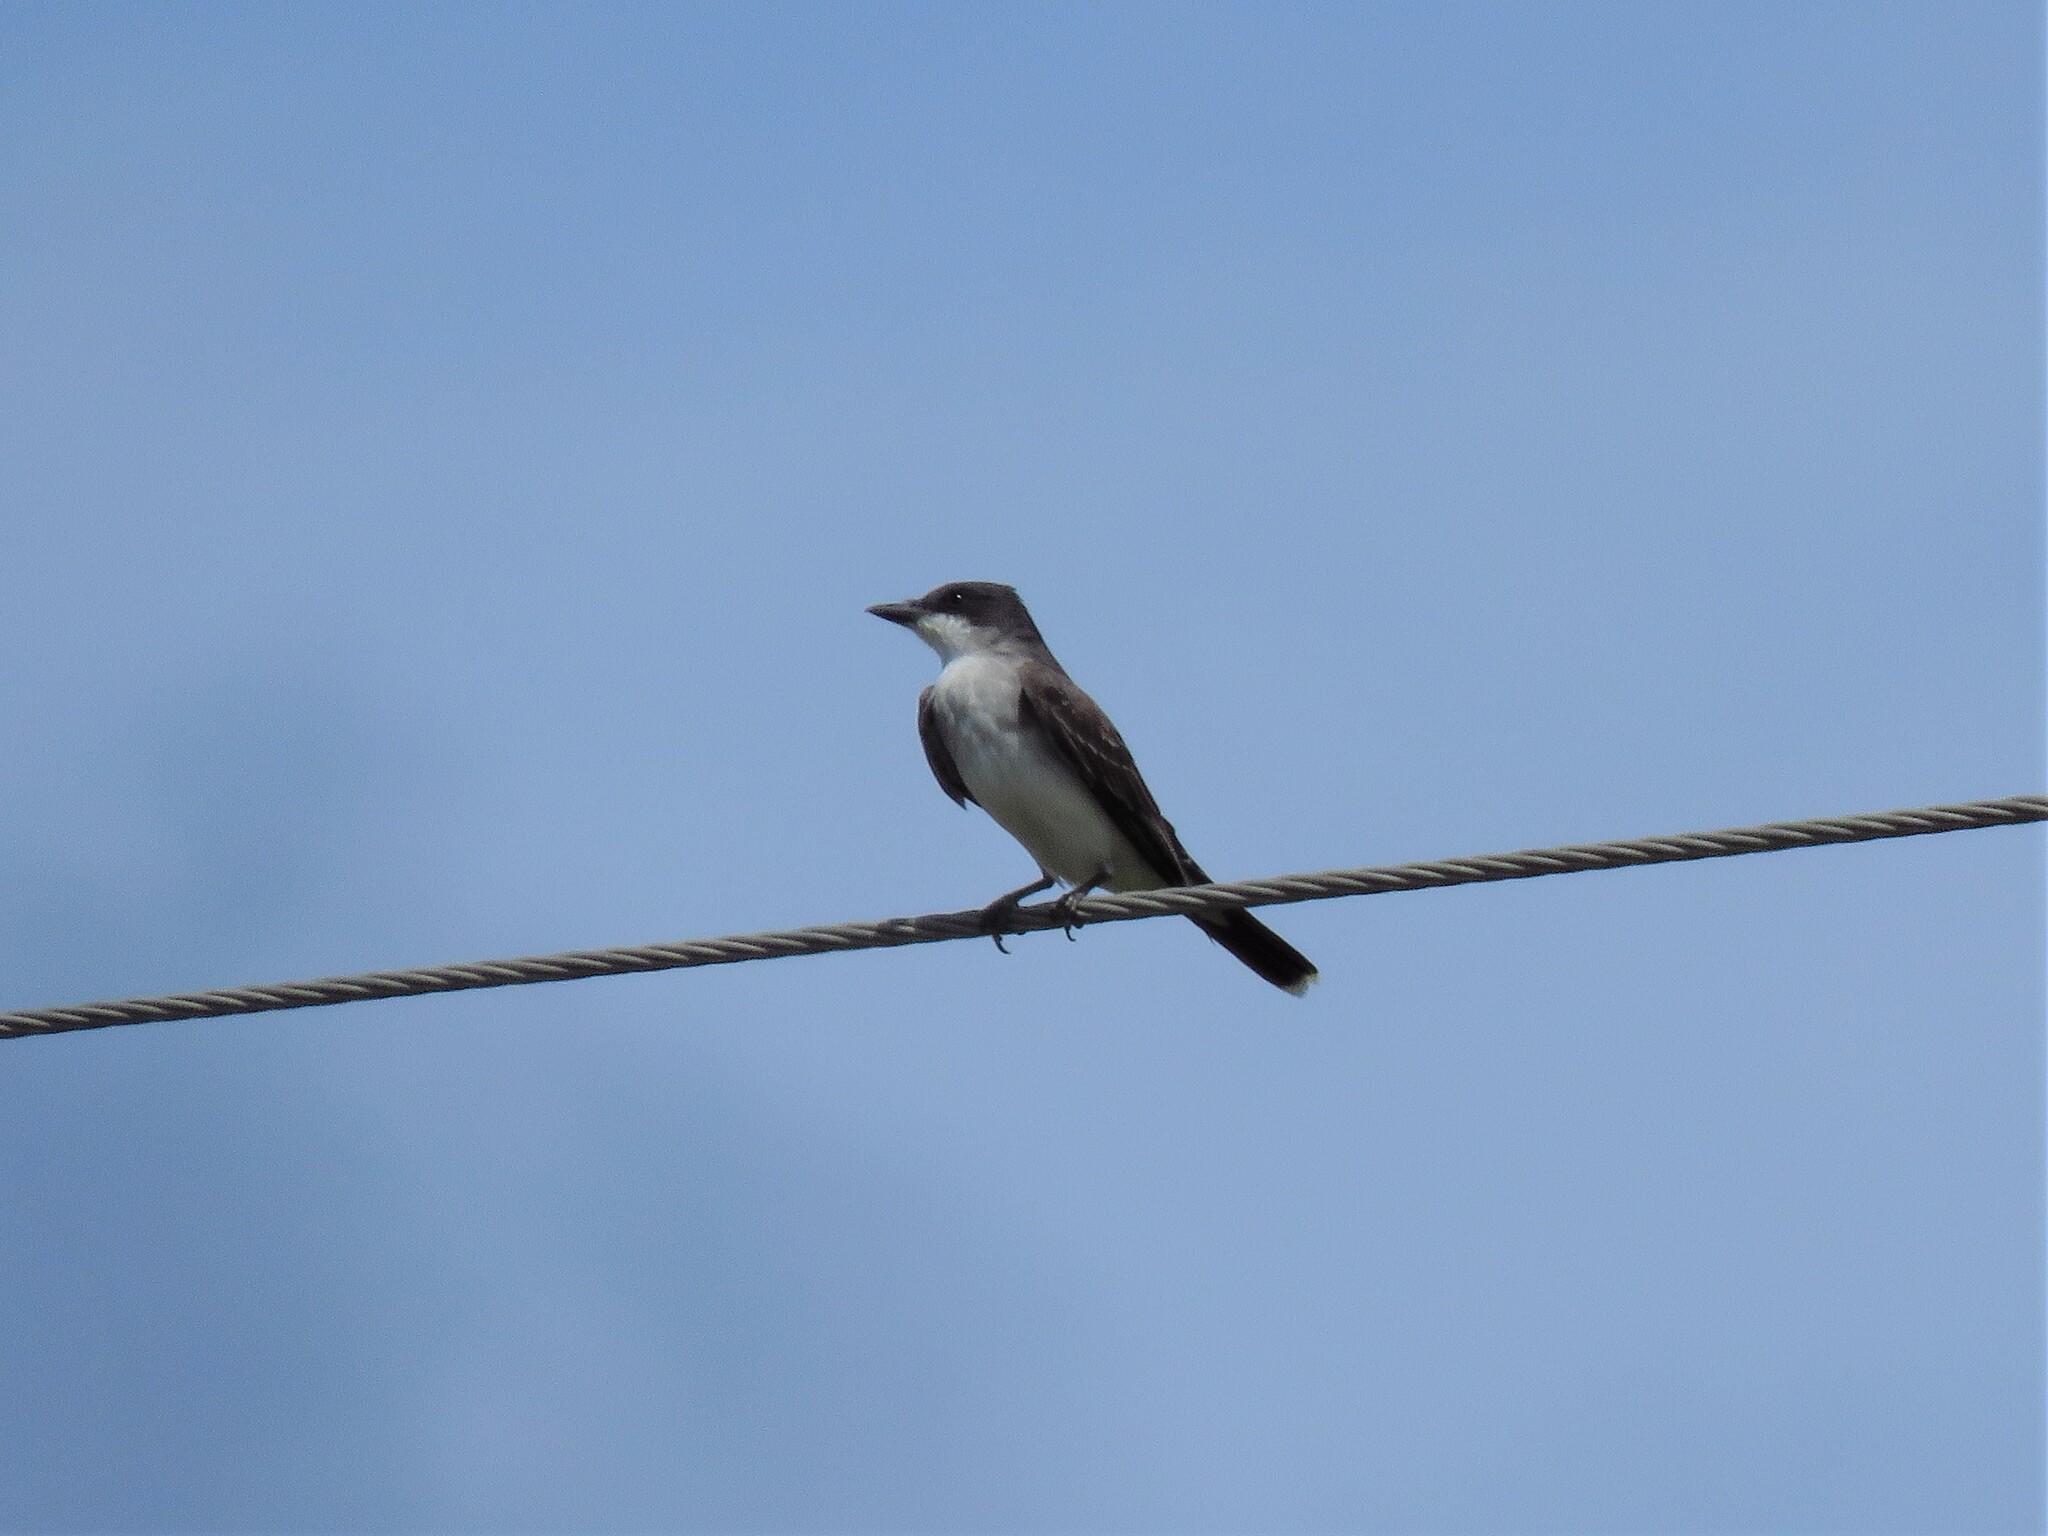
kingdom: Animalia
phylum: Chordata
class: Aves
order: Passeriformes
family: Tyrannidae
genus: Tyrannus
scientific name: Tyrannus tyrannus
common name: Eastern kingbird
